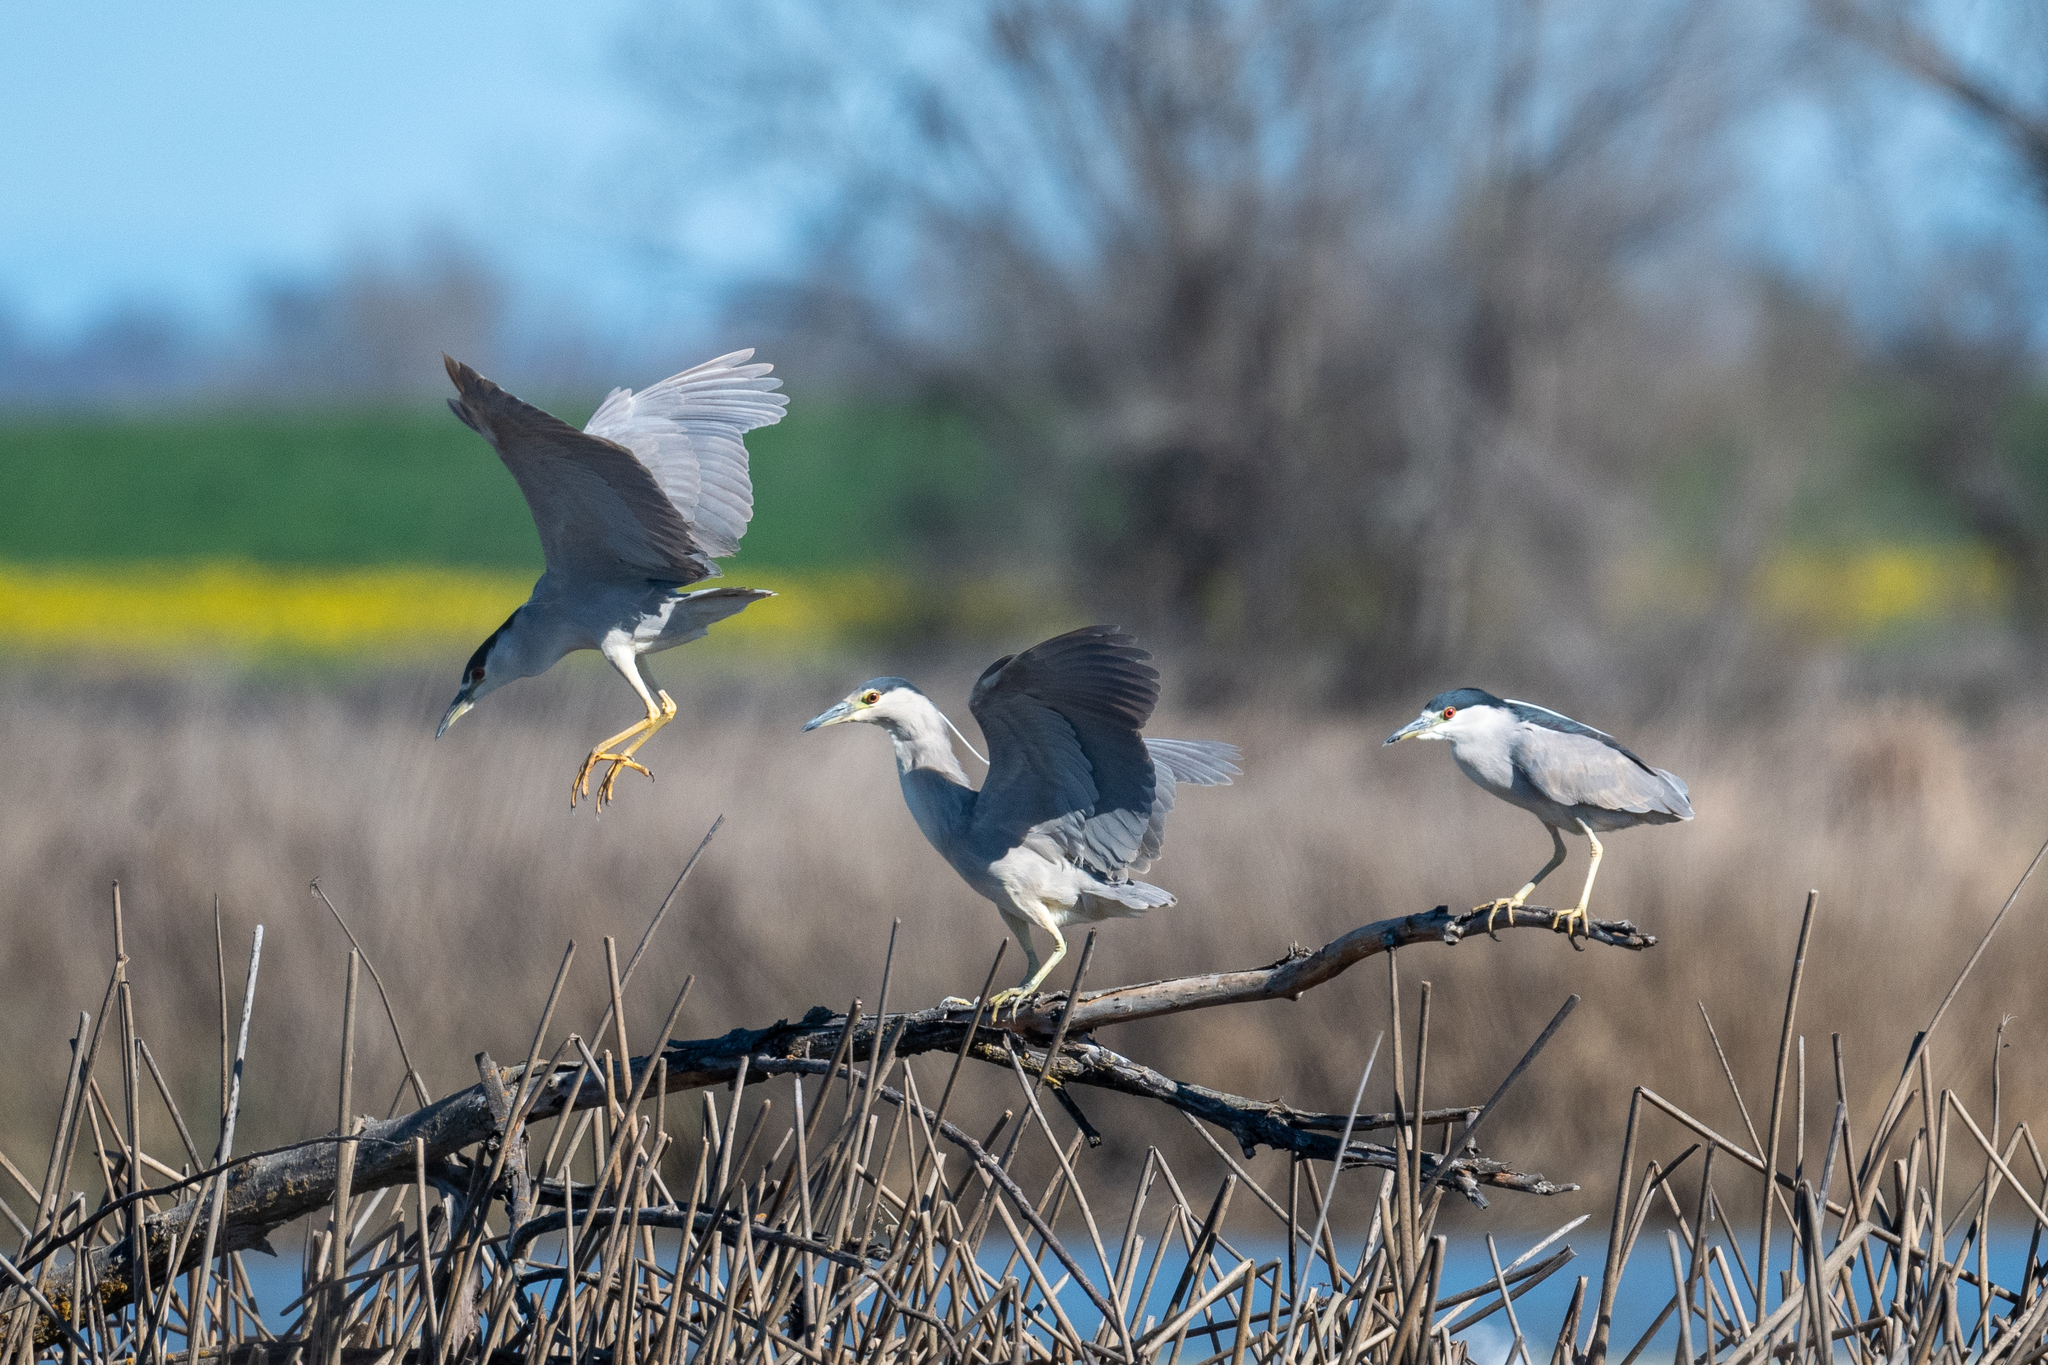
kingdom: Animalia
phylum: Chordata
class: Aves
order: Pelecaniformes
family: Ardeidae
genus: Nycticorax
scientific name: Nycticorax nycticorax
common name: Black-crowned night heron
